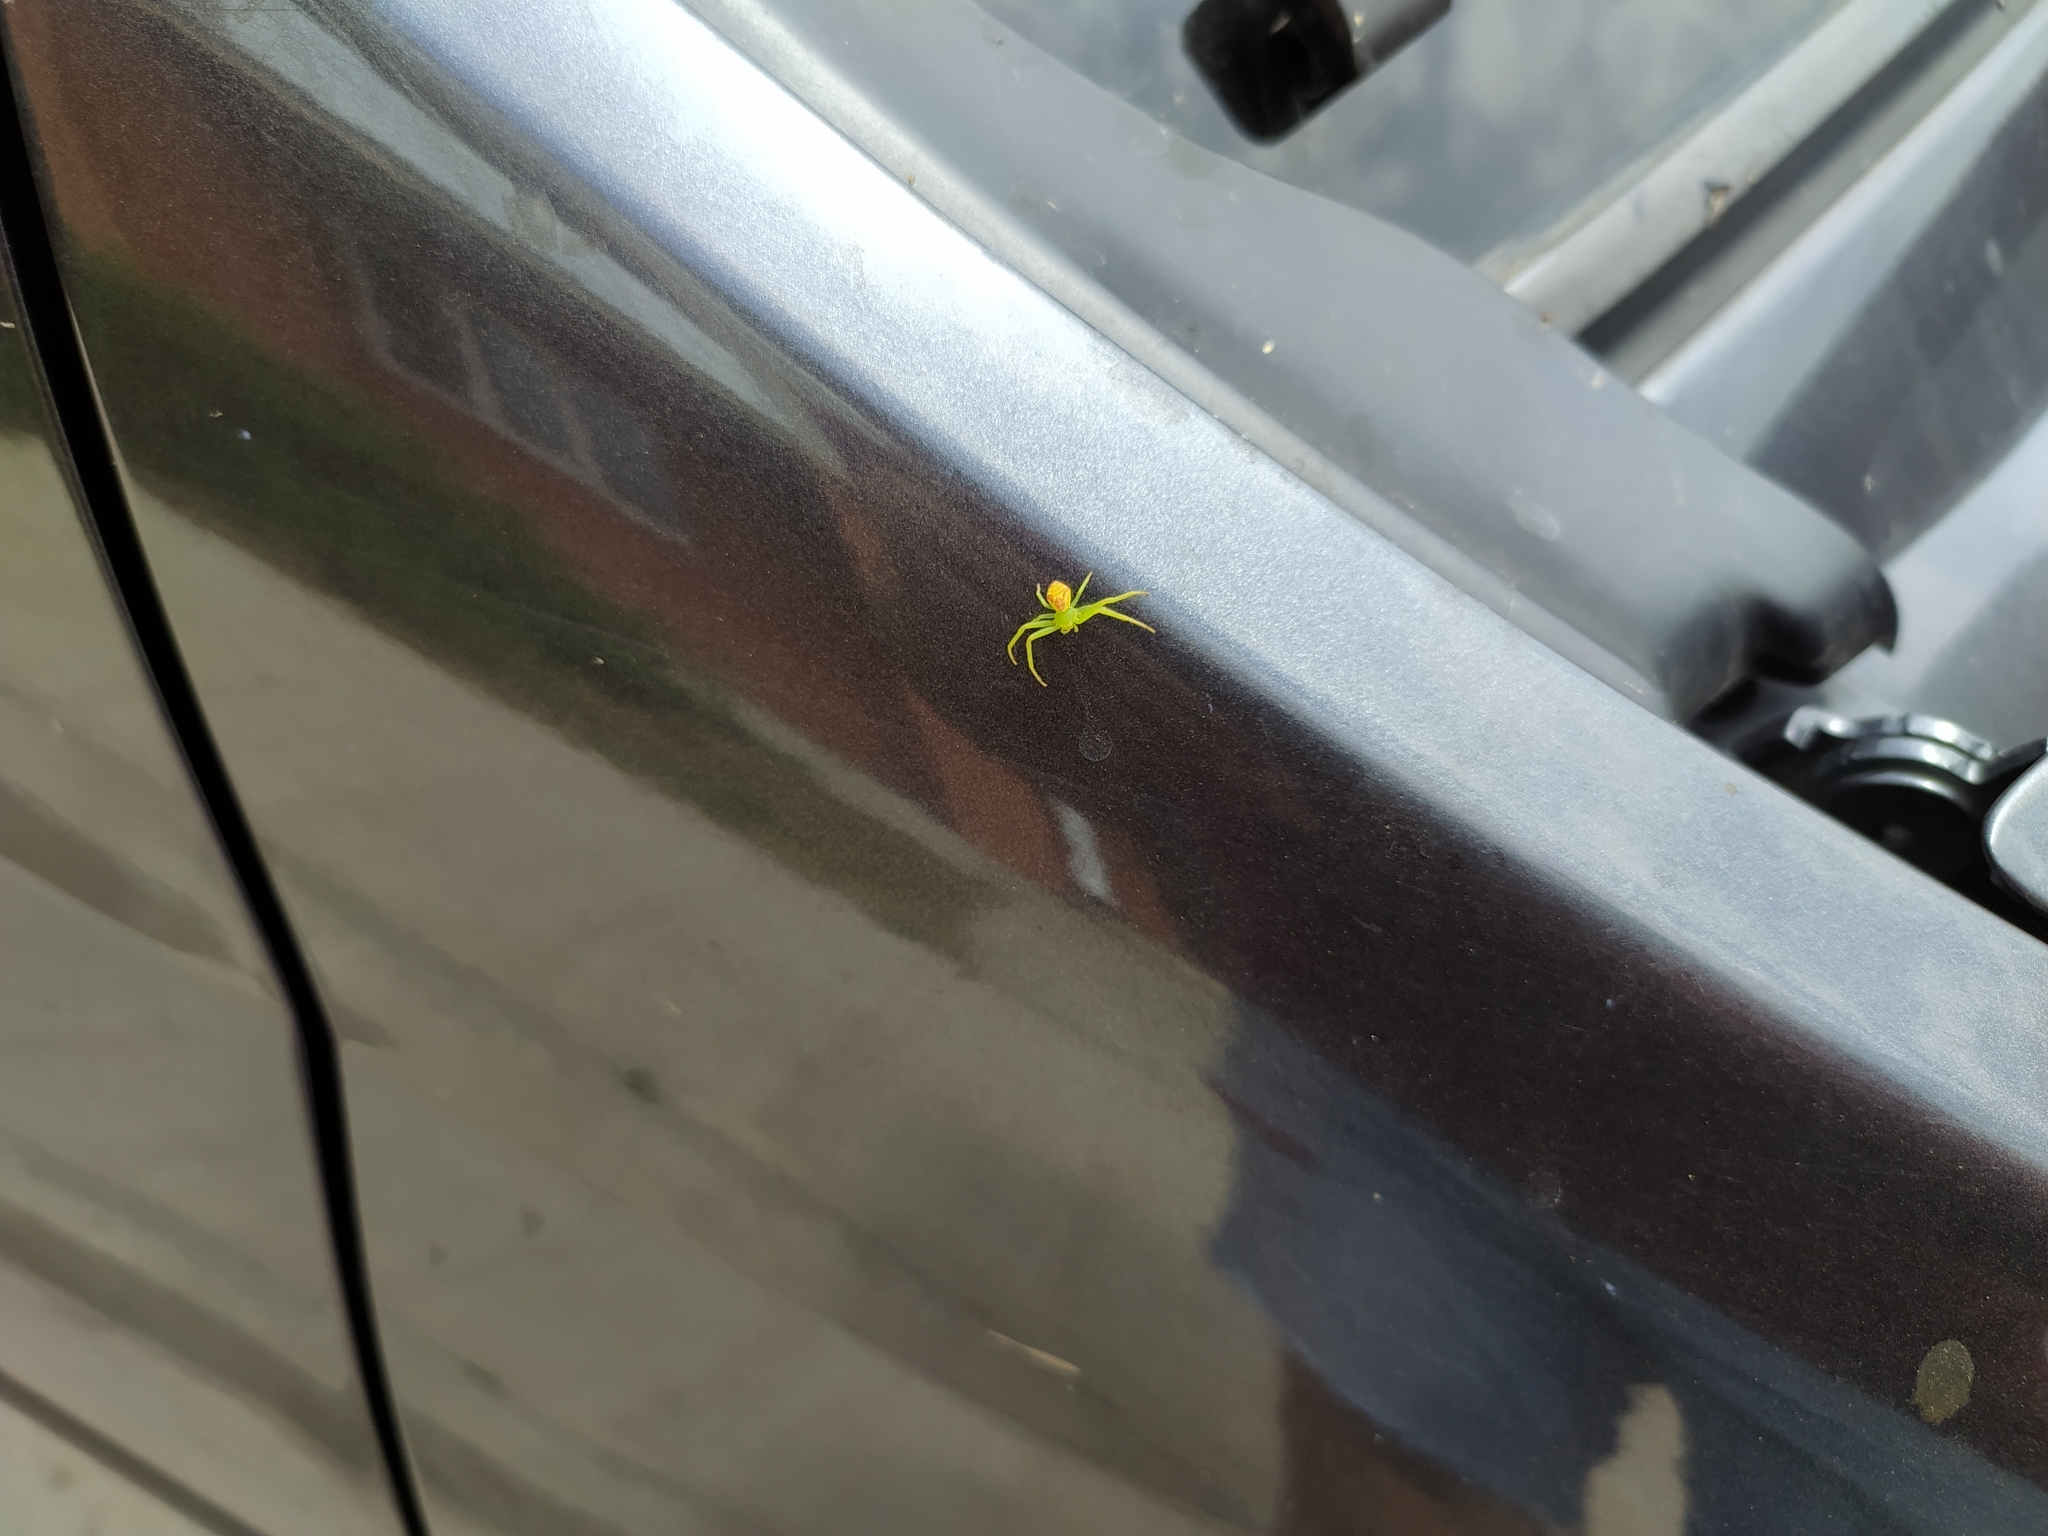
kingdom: Animalia
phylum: Arthropoda
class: Arachnida
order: Araneae
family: Thomisidae
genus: Ebrechtella
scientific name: Ebrechtella tricuspidata
